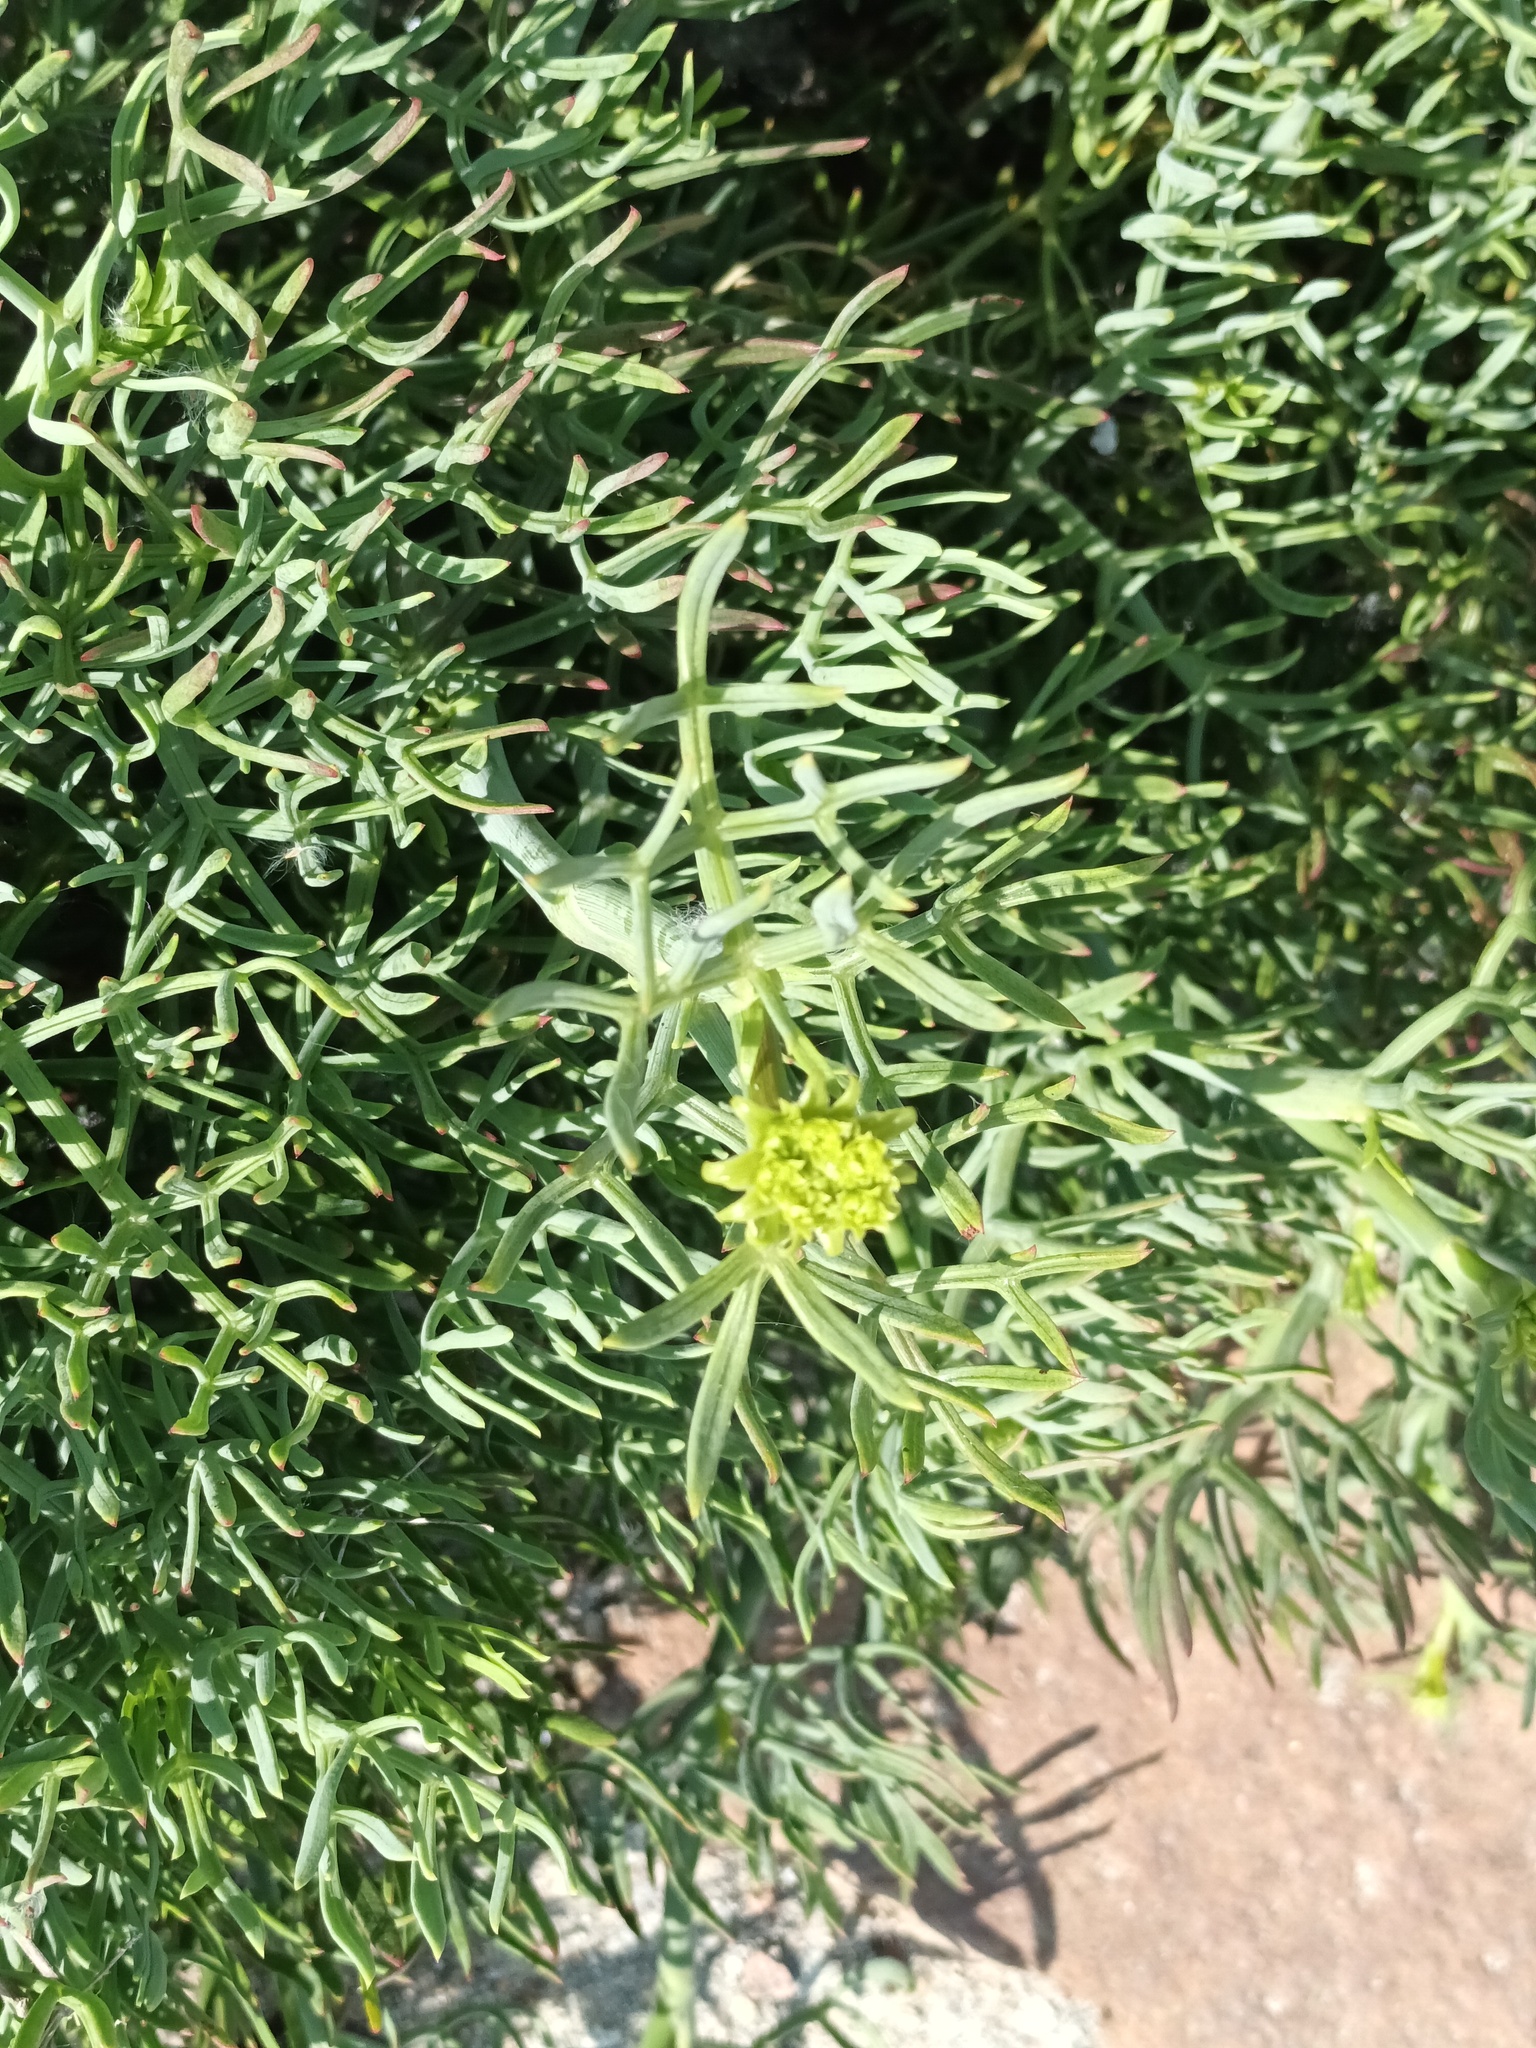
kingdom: Plantae
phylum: Tracheophyta
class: Magnoliopsida
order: Apiales
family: Apiaceae
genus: Crithmum
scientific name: Crithmum maritimum
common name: Rock samphire
